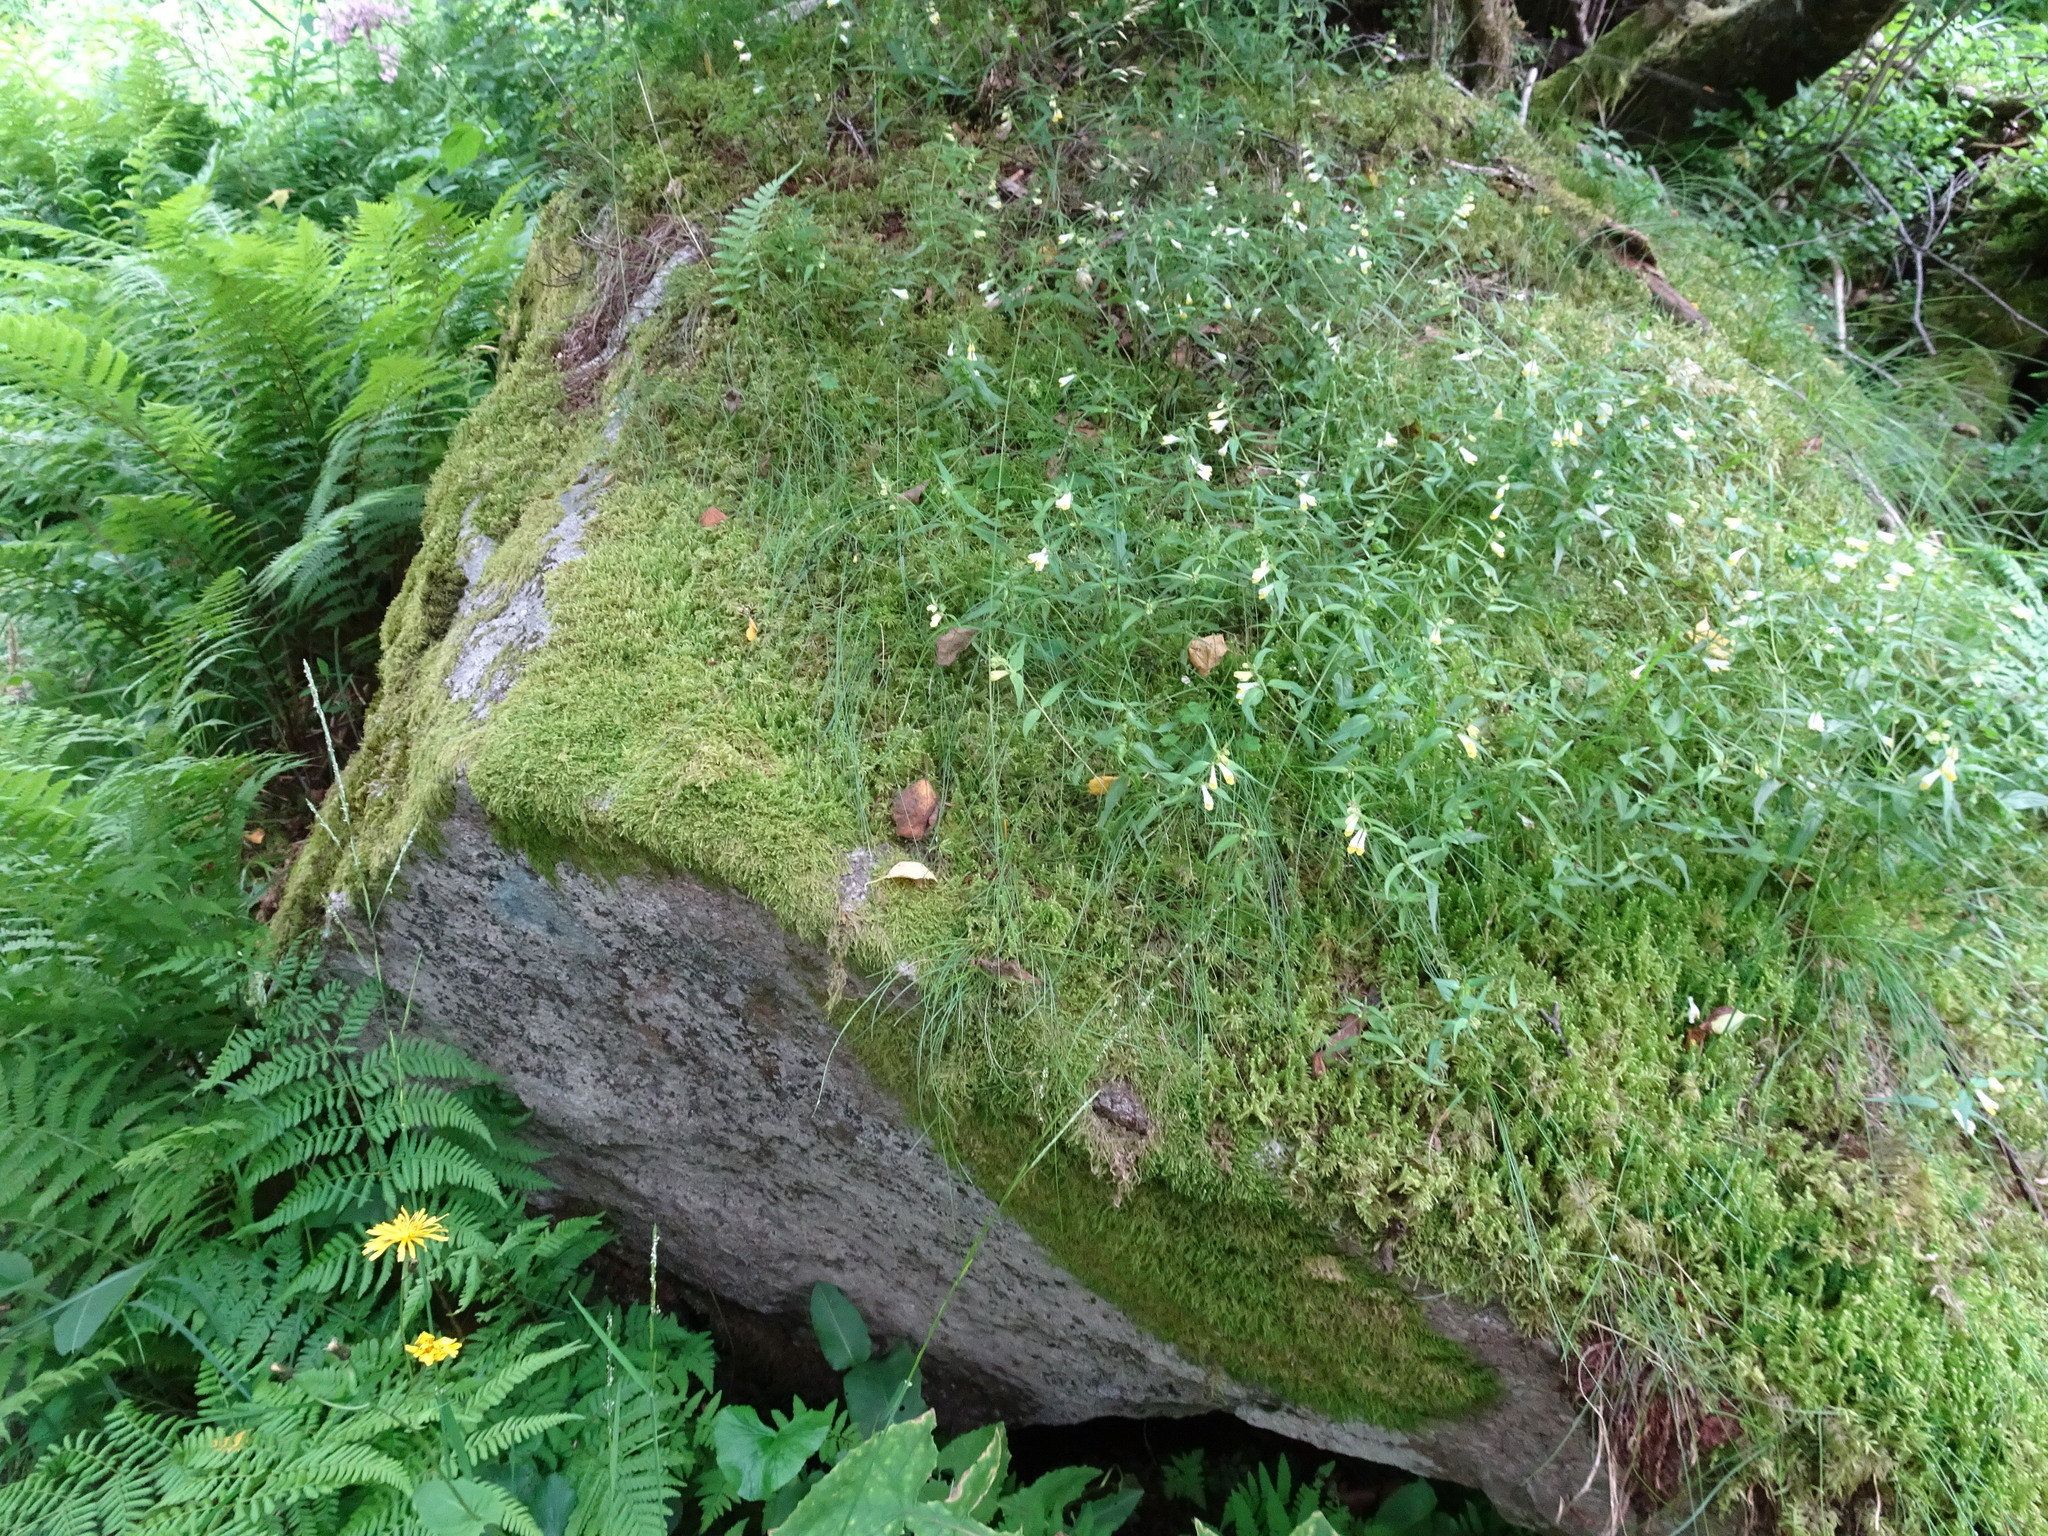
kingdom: Plantae
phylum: Tracheophyta
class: Magnoliopsida
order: Lamiales
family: Orobanchaceae
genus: Melampyrum
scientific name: Melampyrum pratense
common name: Common cow-wheat
